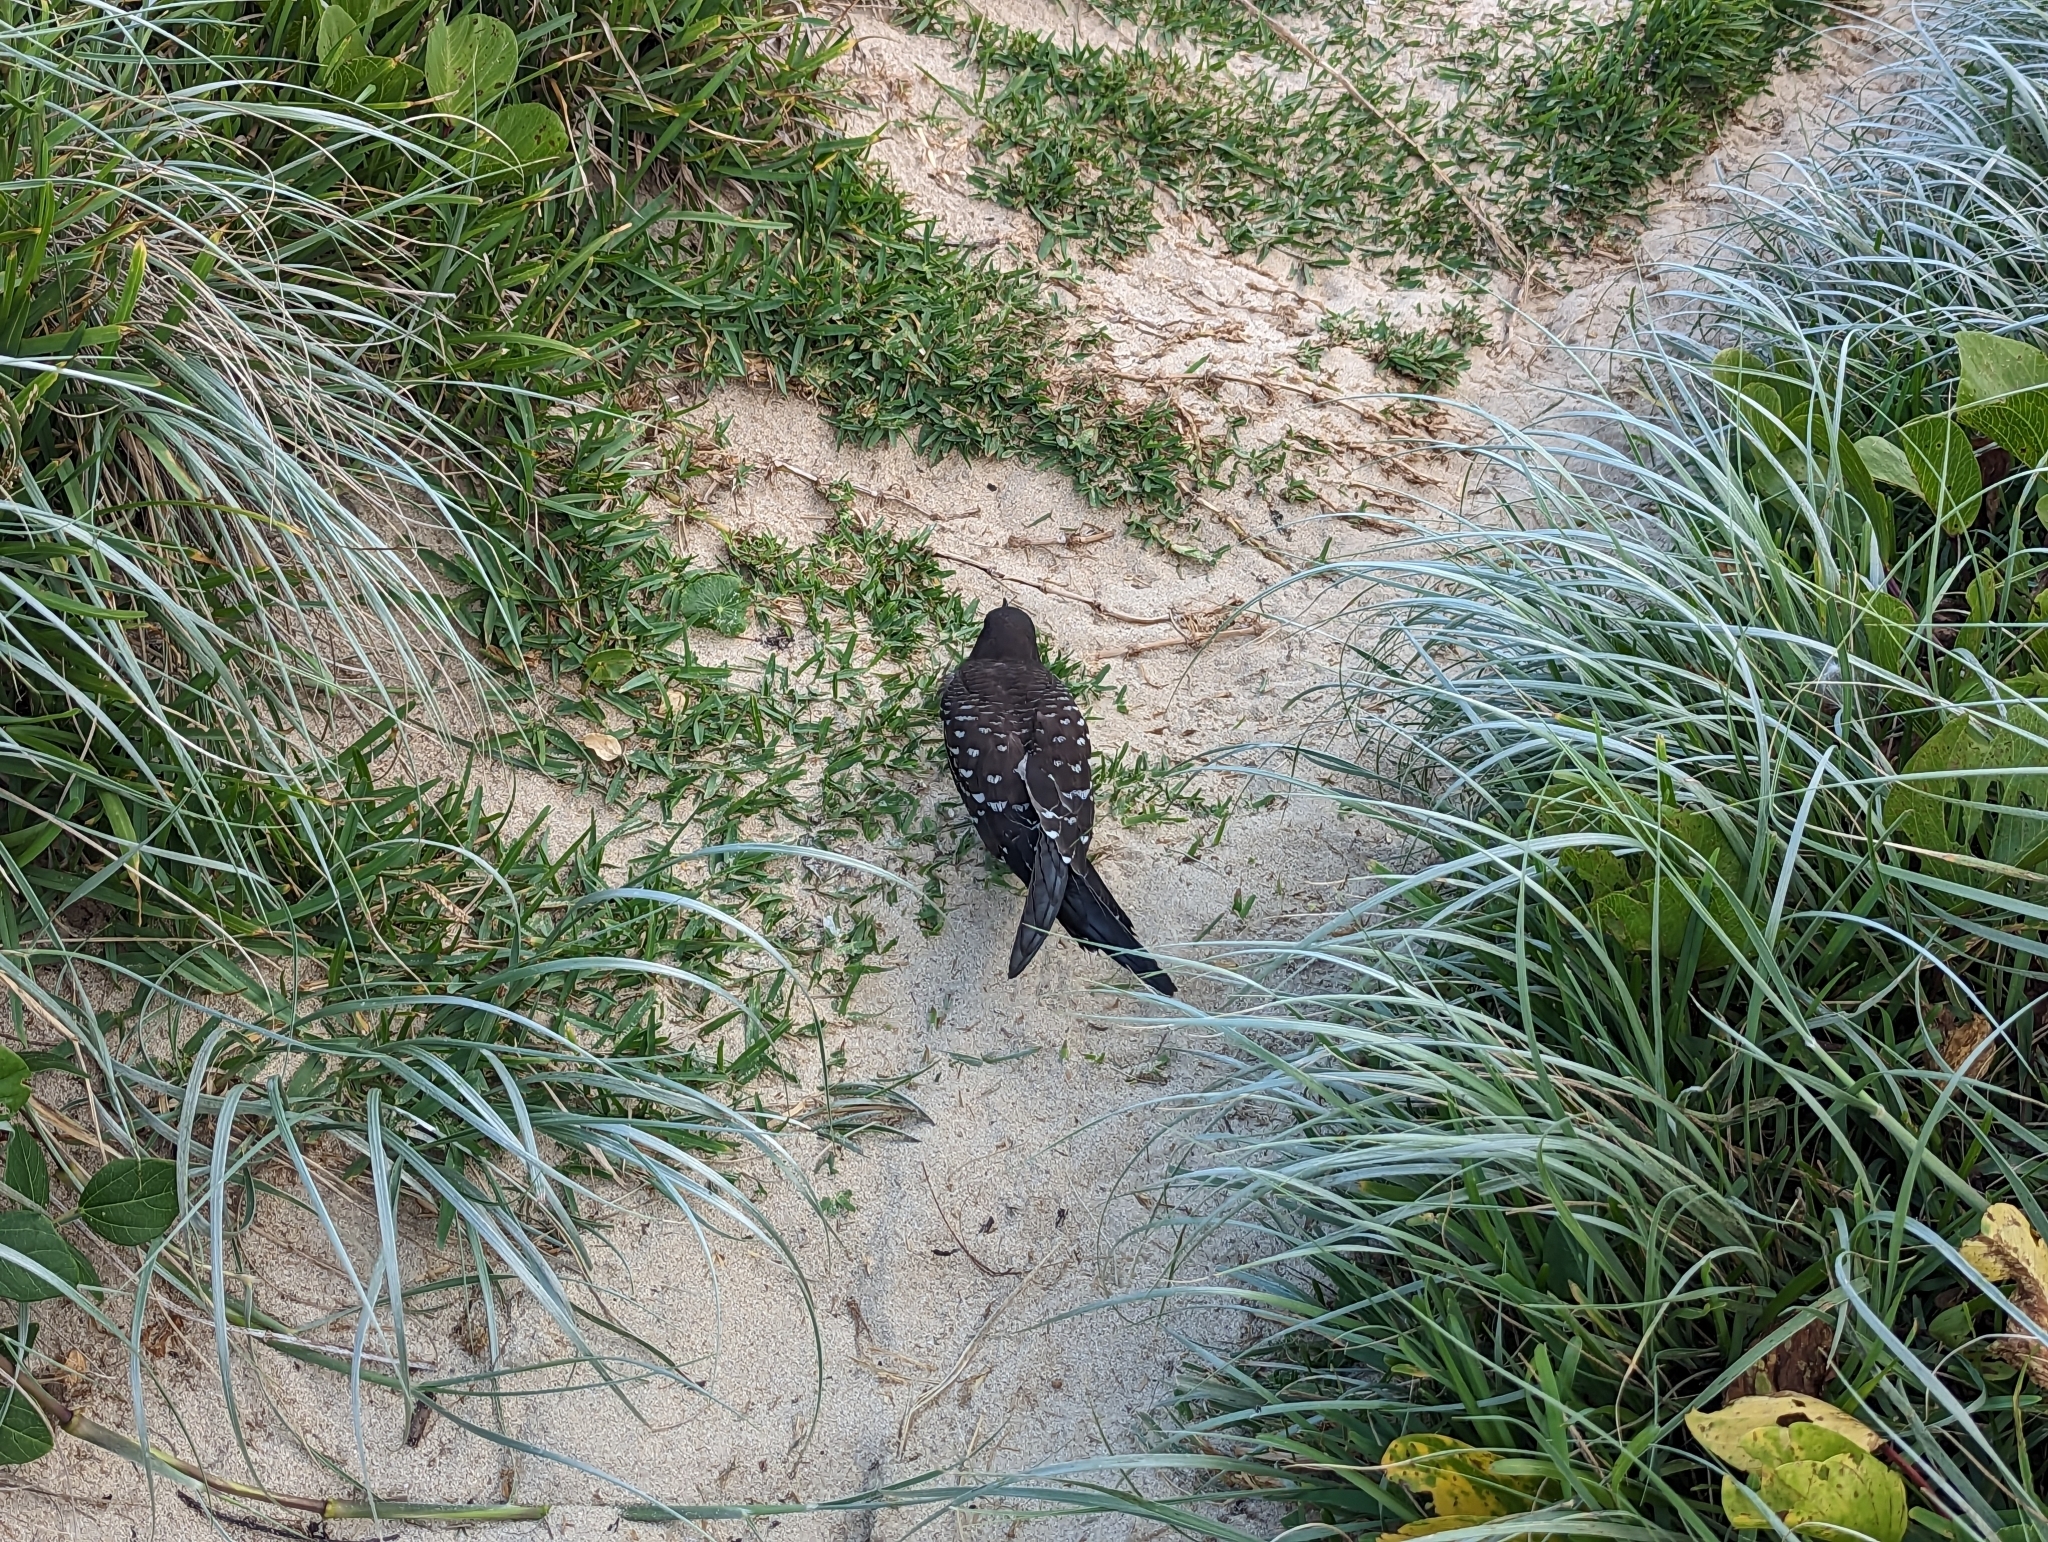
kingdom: Animalia
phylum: Chordata
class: Aves
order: Charadriiformes
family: Laridae
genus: Onychoprion
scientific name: Onychoprion fuscatus
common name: Sooty tern
